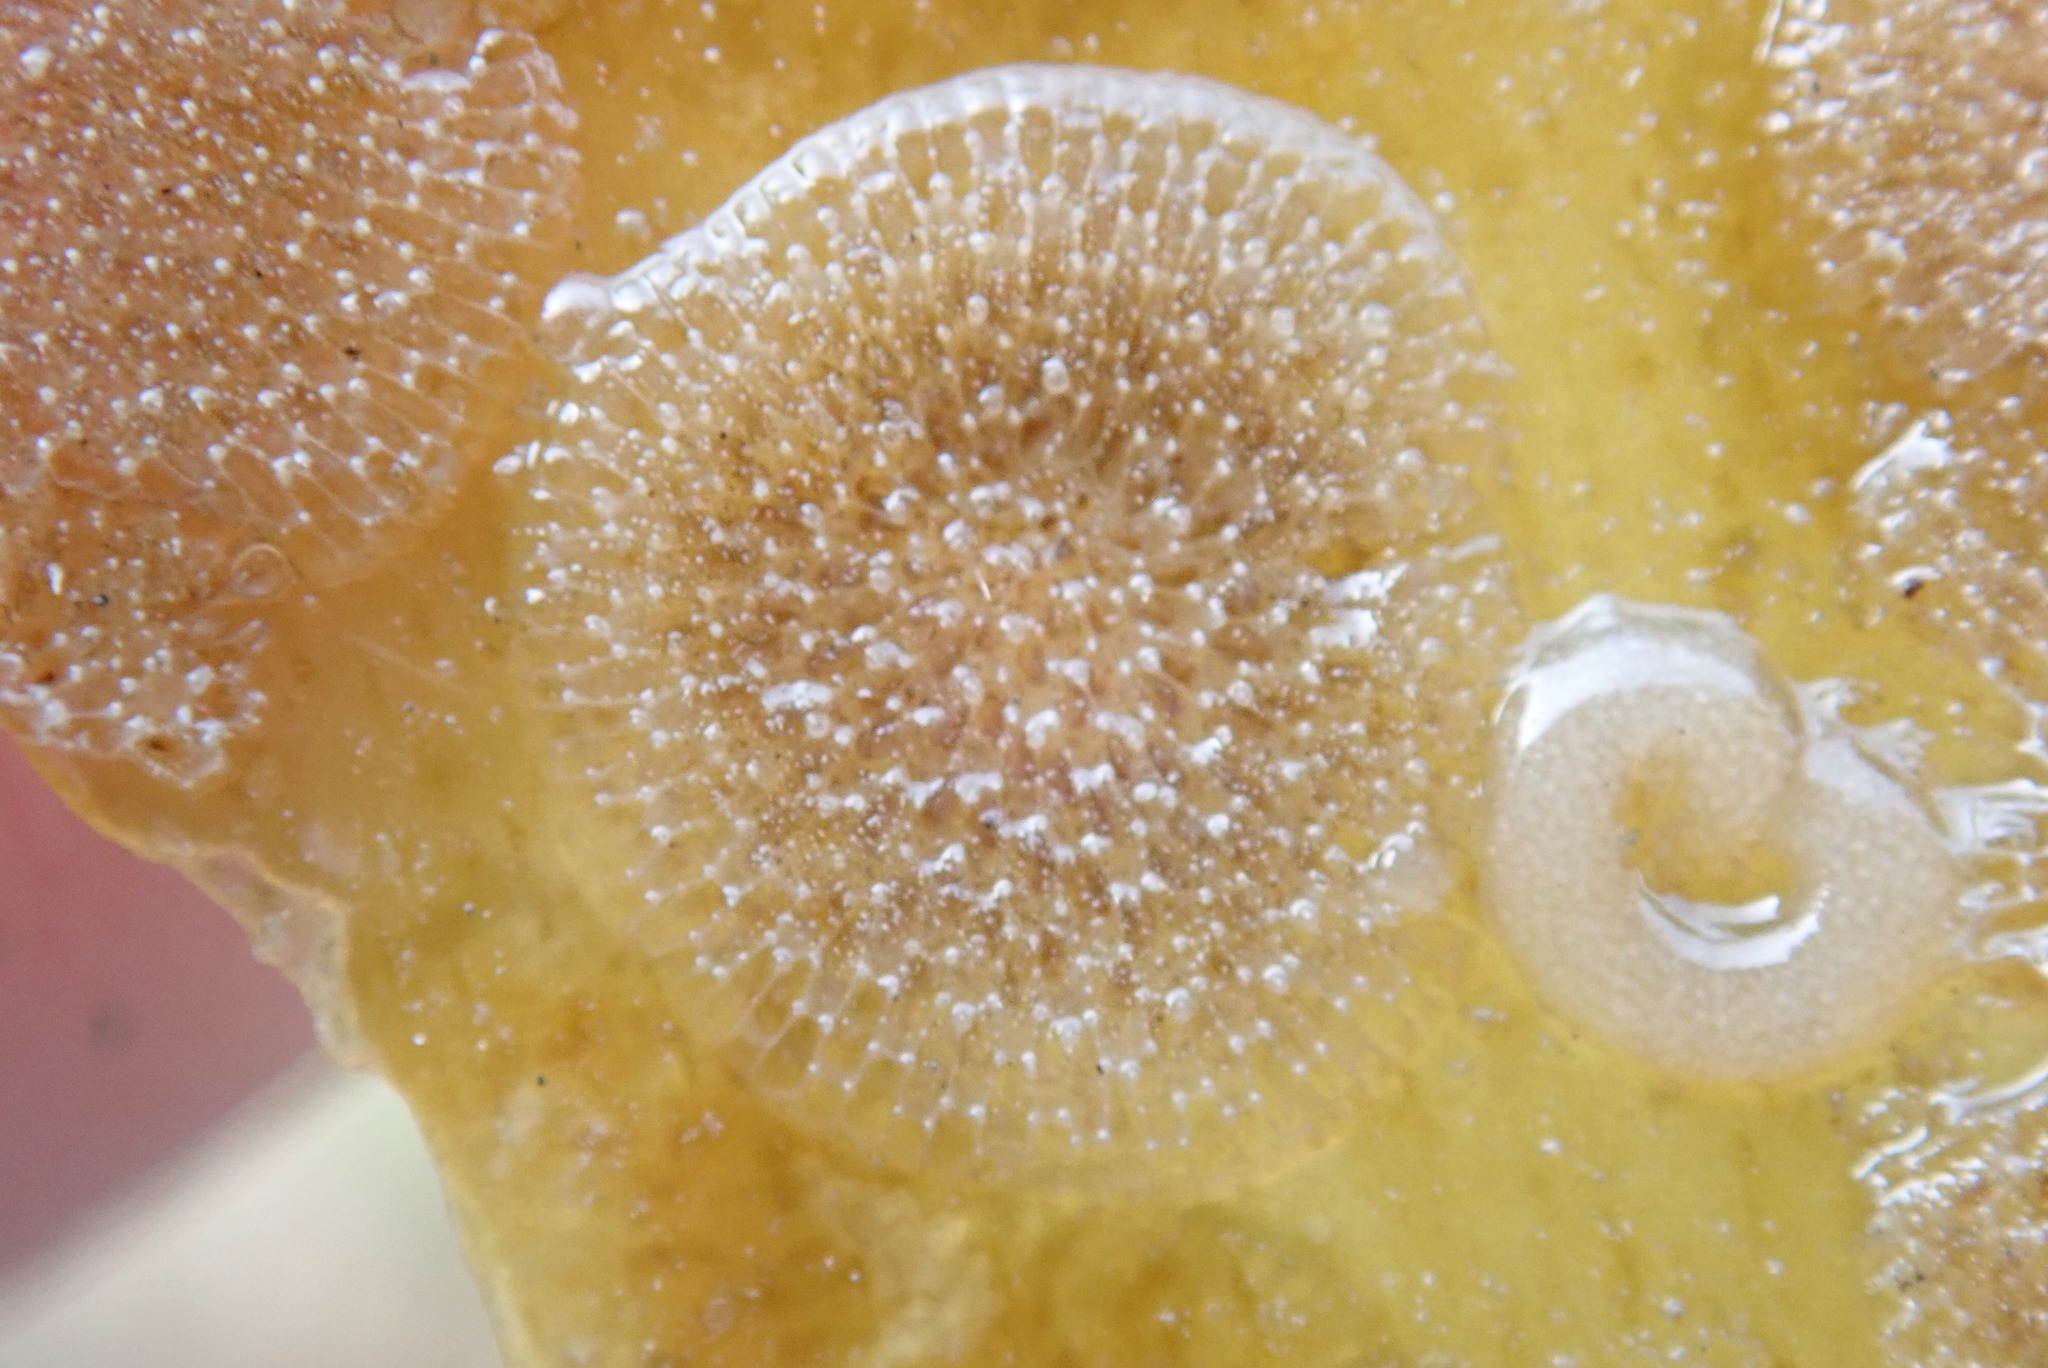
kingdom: Animalia
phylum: Bryozoa
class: Gymnolaemata
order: Cheilostomatida
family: Membraniporidae
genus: Membranipora
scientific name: Membranipora villosa
